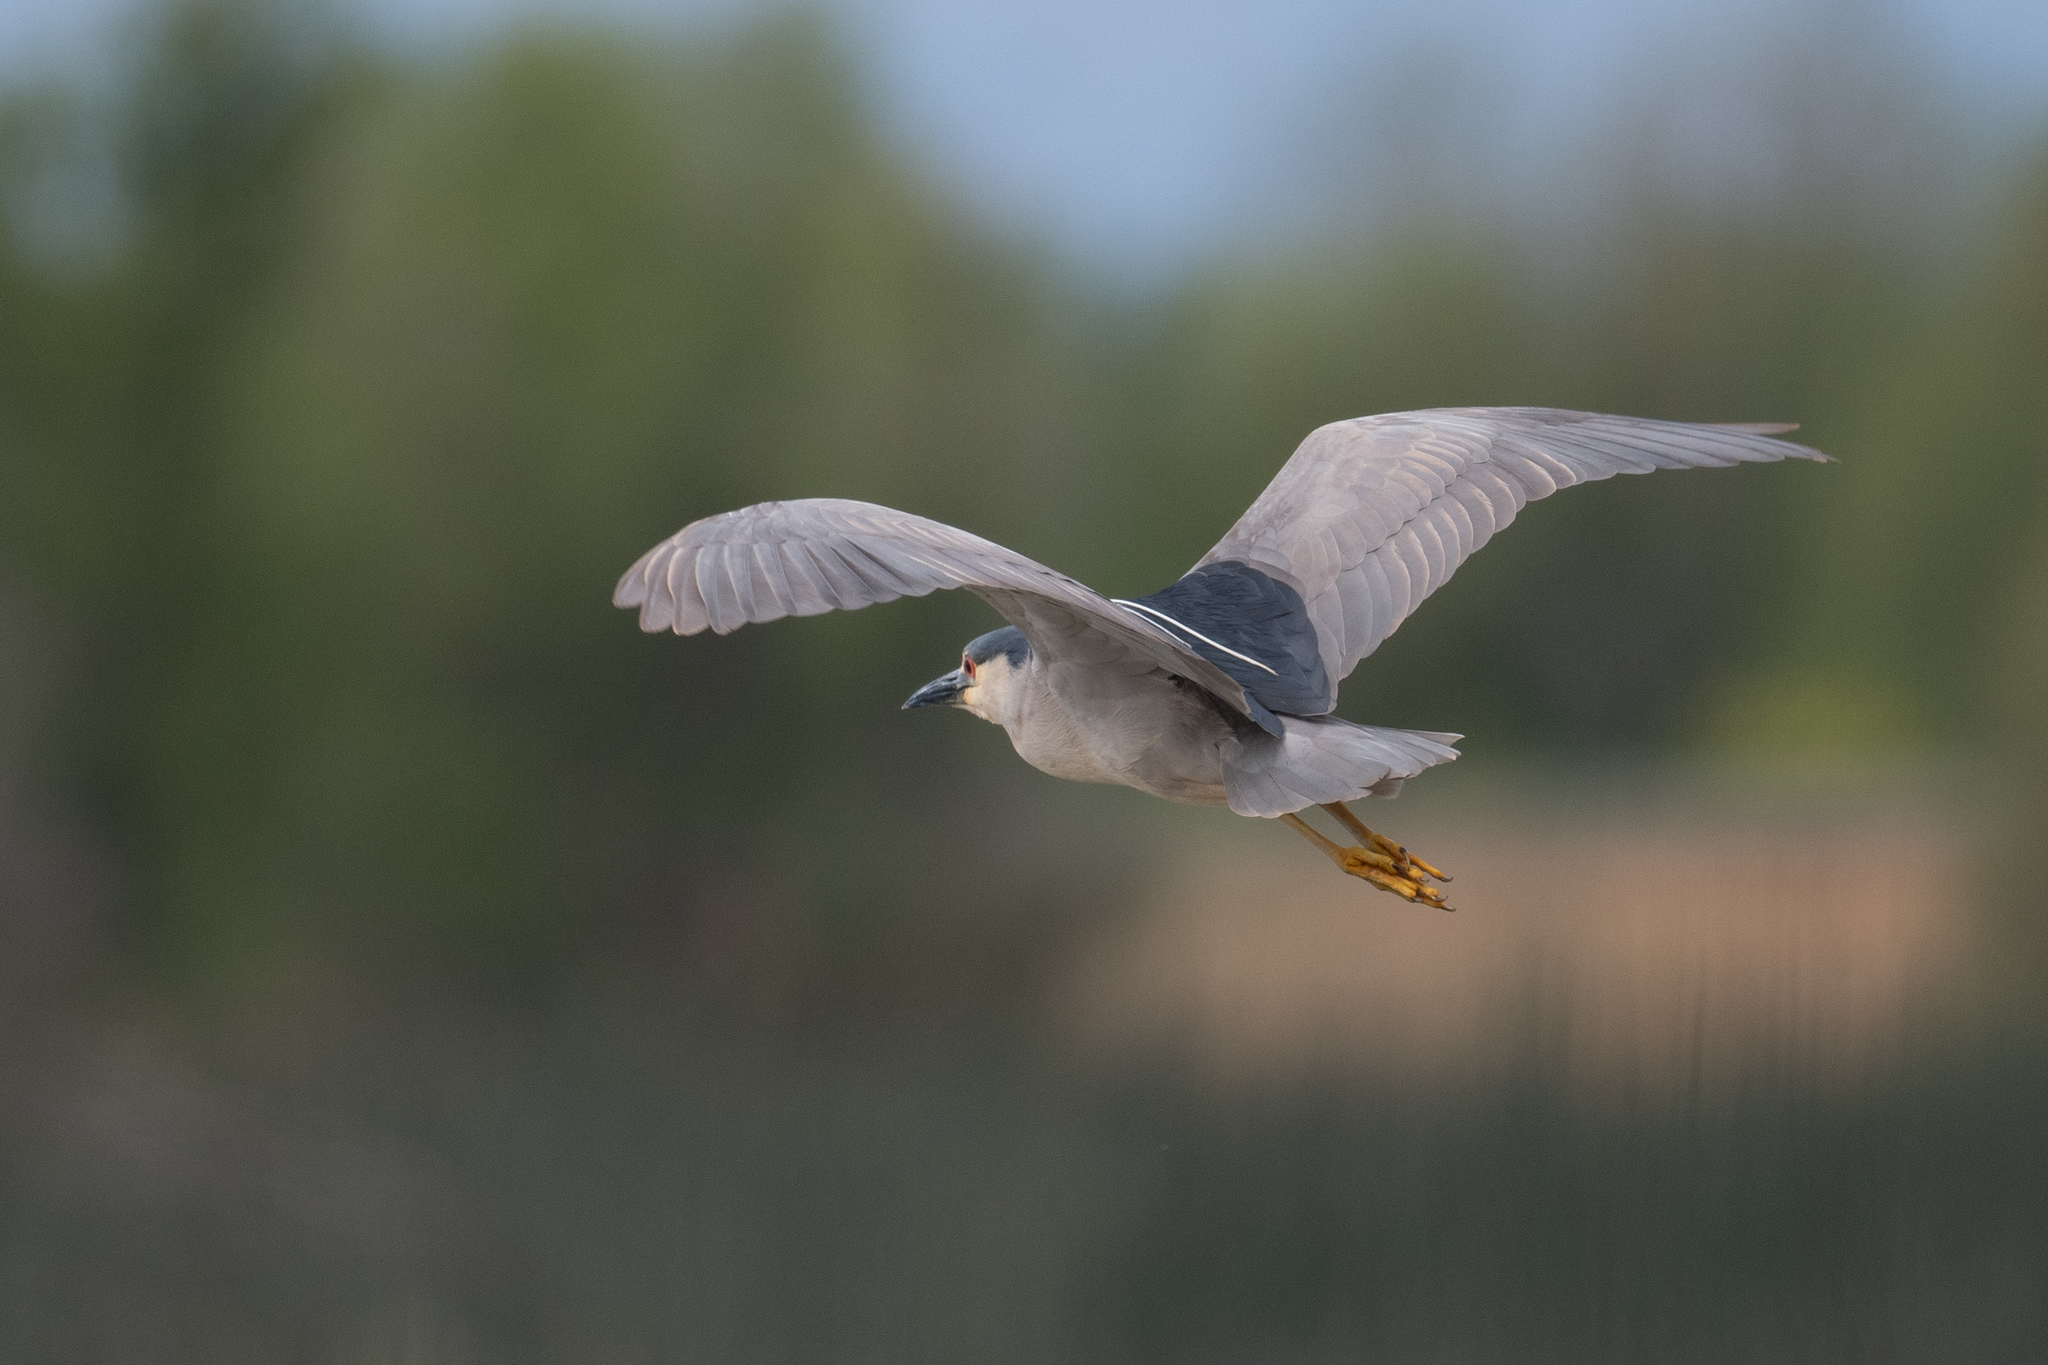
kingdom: Animalia
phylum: Chordata
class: Aves
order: Pelecaniformes
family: Ardeidae
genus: Nycticorax
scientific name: Nycticorax nycticorax
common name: Black-crowned night heron
